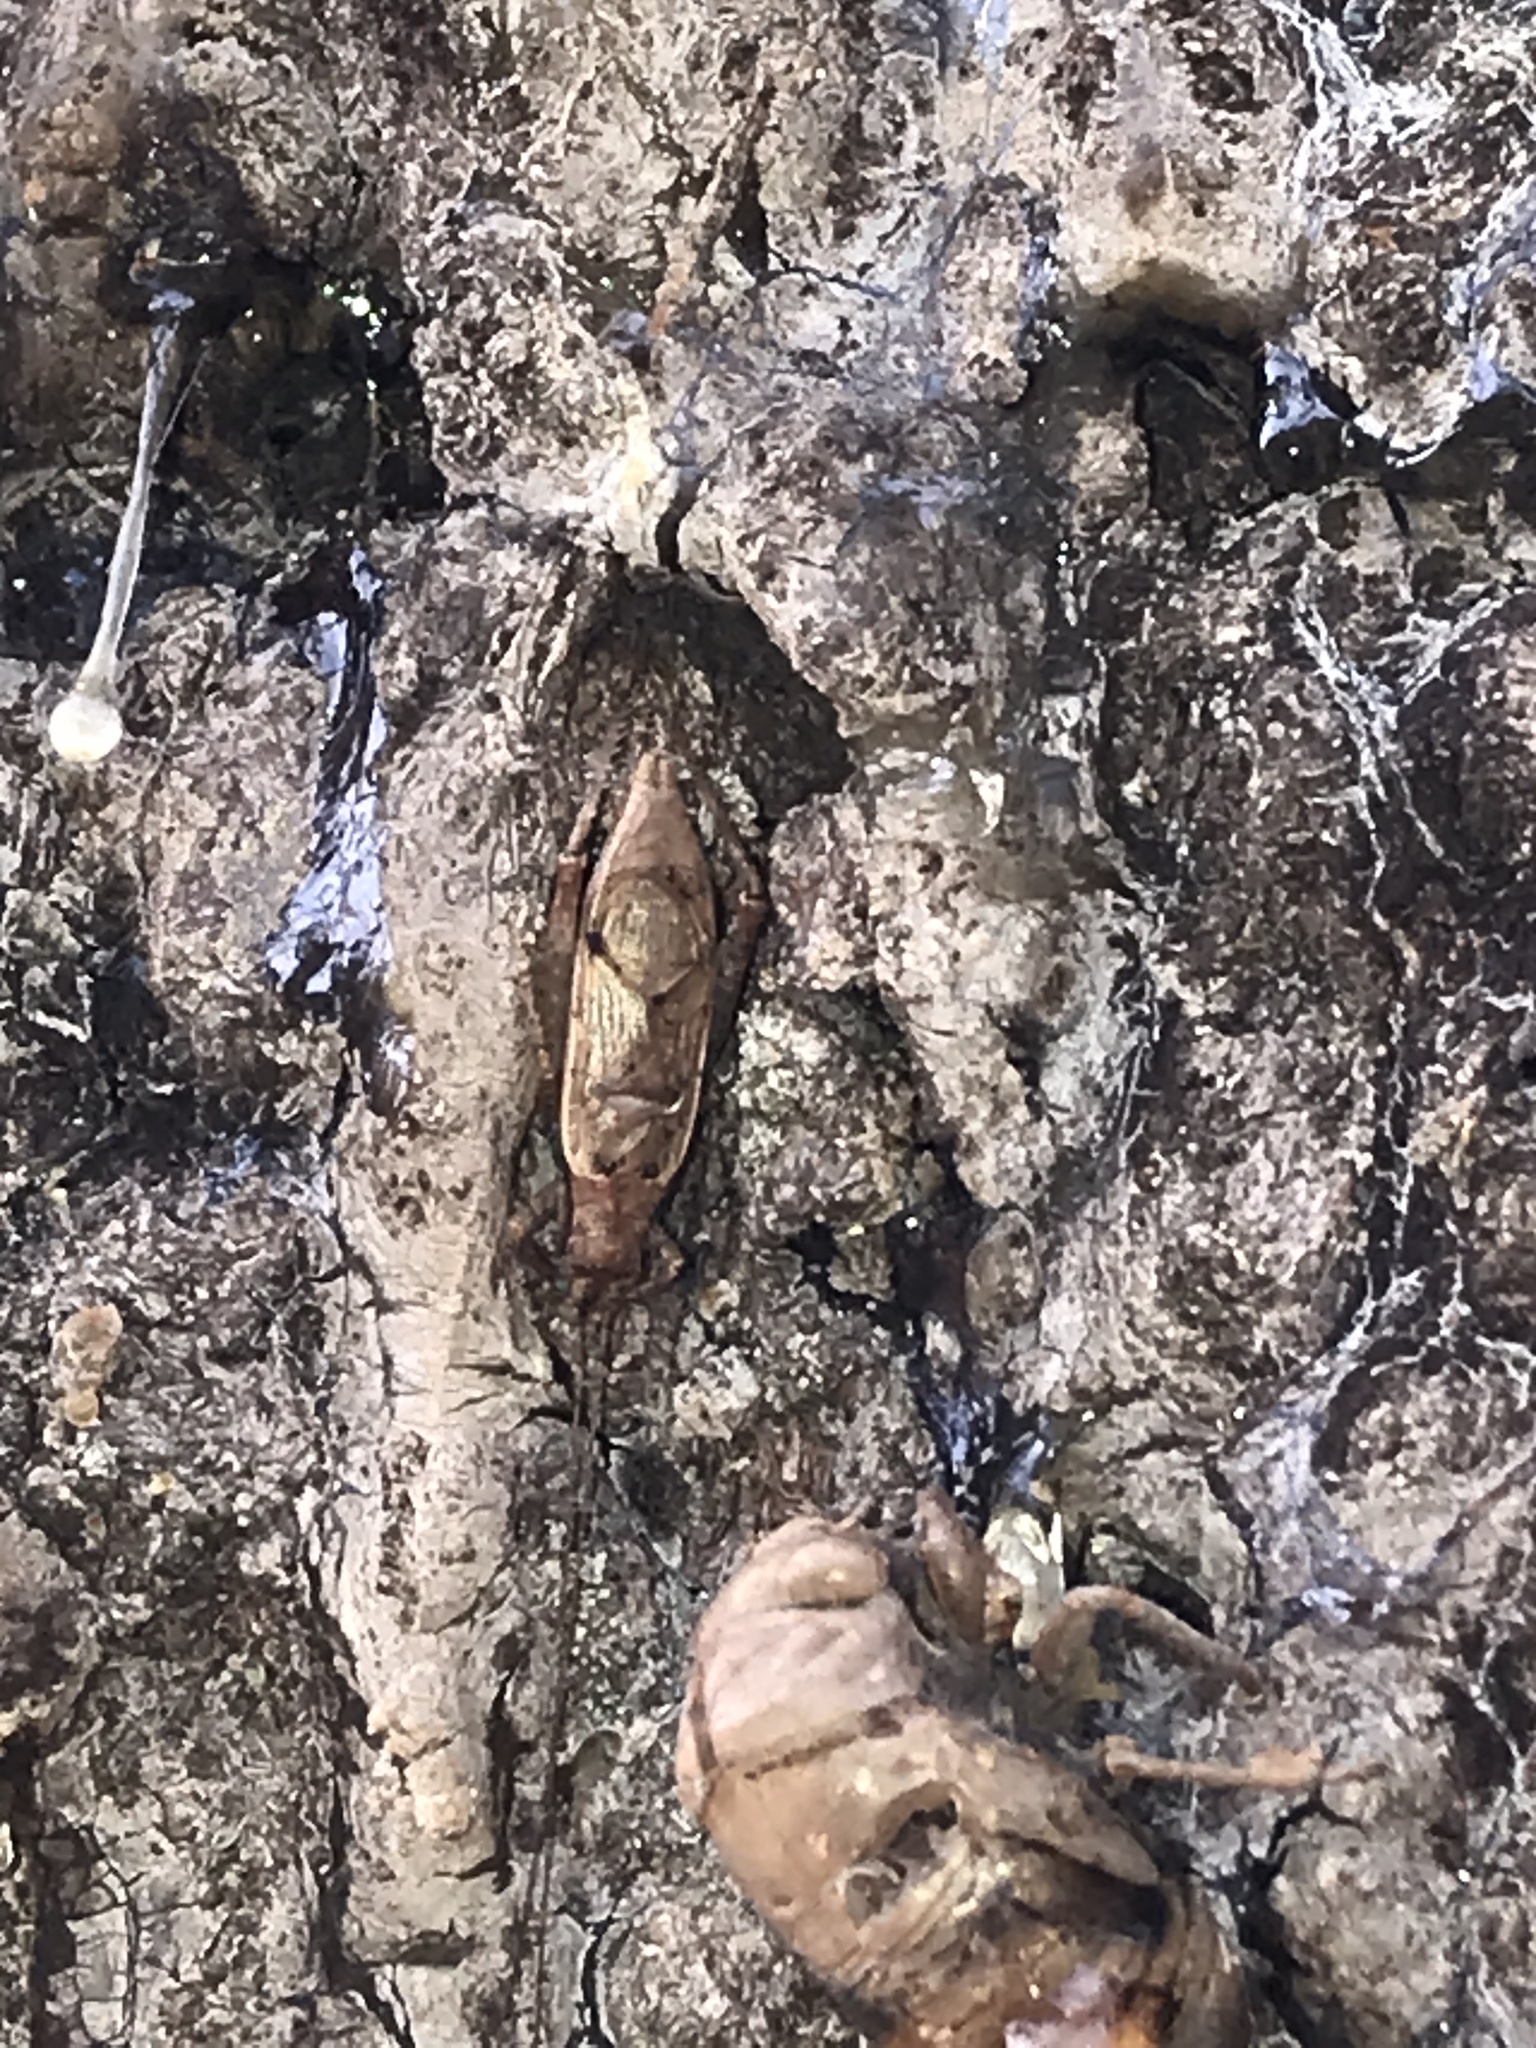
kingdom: Animalia
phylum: Arthropoda
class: Insecta
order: Orthoptera
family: Gryllidae
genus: Hapithus
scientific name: Hapithus saltator
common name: Jumping bush cricket
